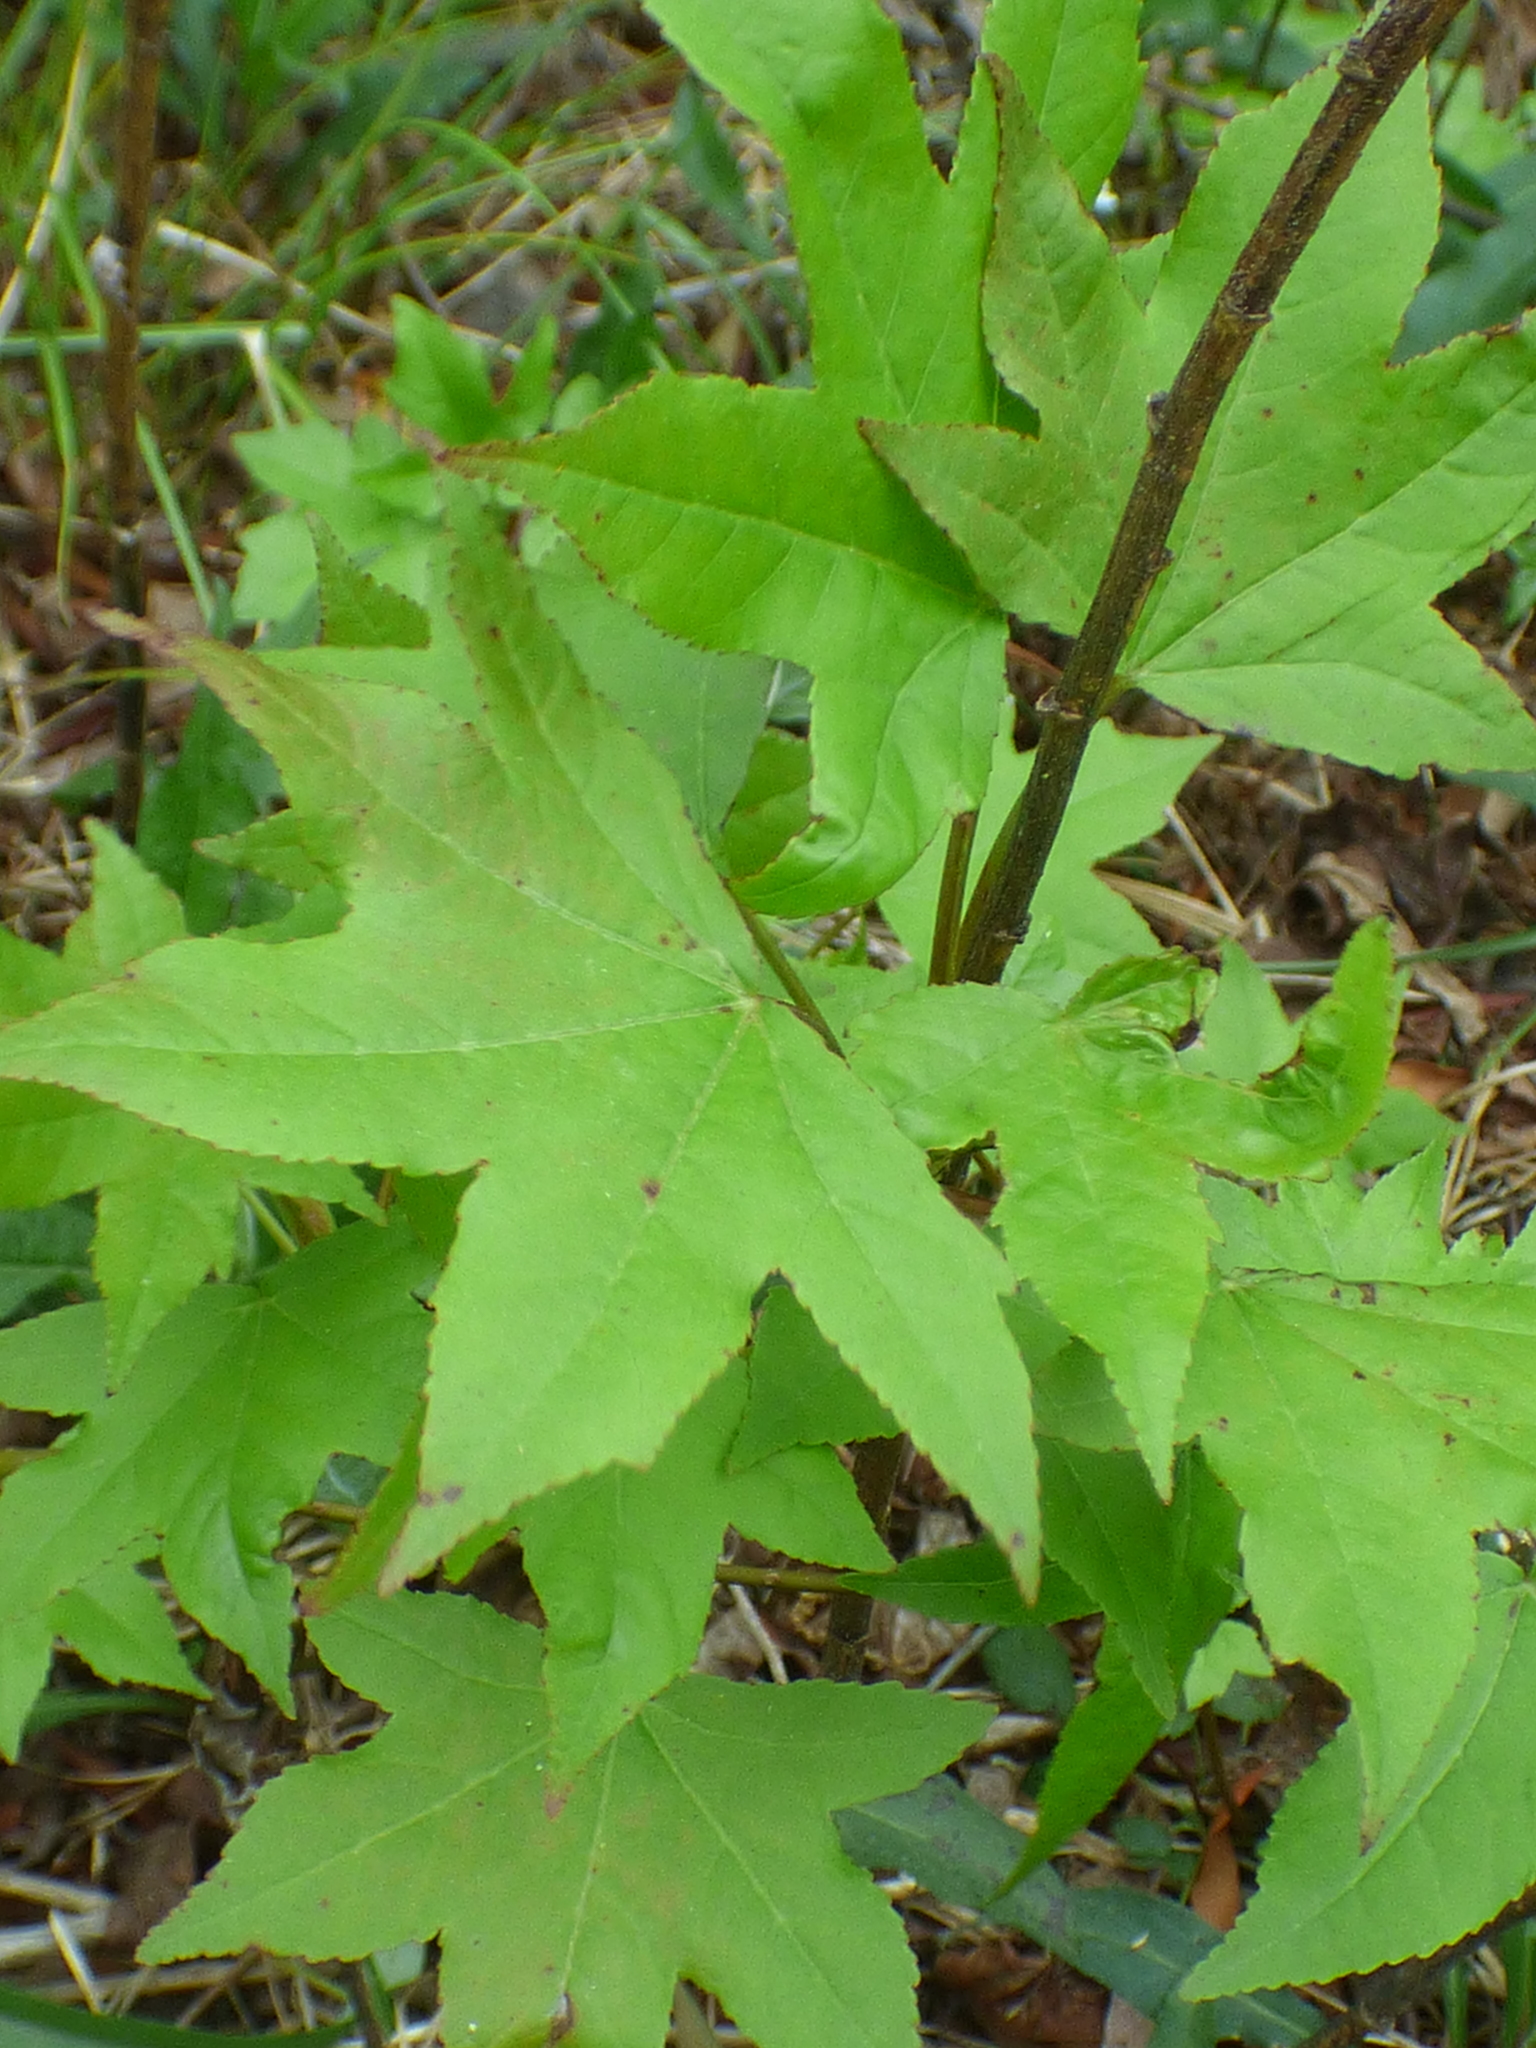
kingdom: Plantae
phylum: Tracheophyta
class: Magnoliopsida
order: Saxifragales
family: Altingiaceae
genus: Liquidambar
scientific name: Liquidambar styraciflua
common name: Sweet gum
